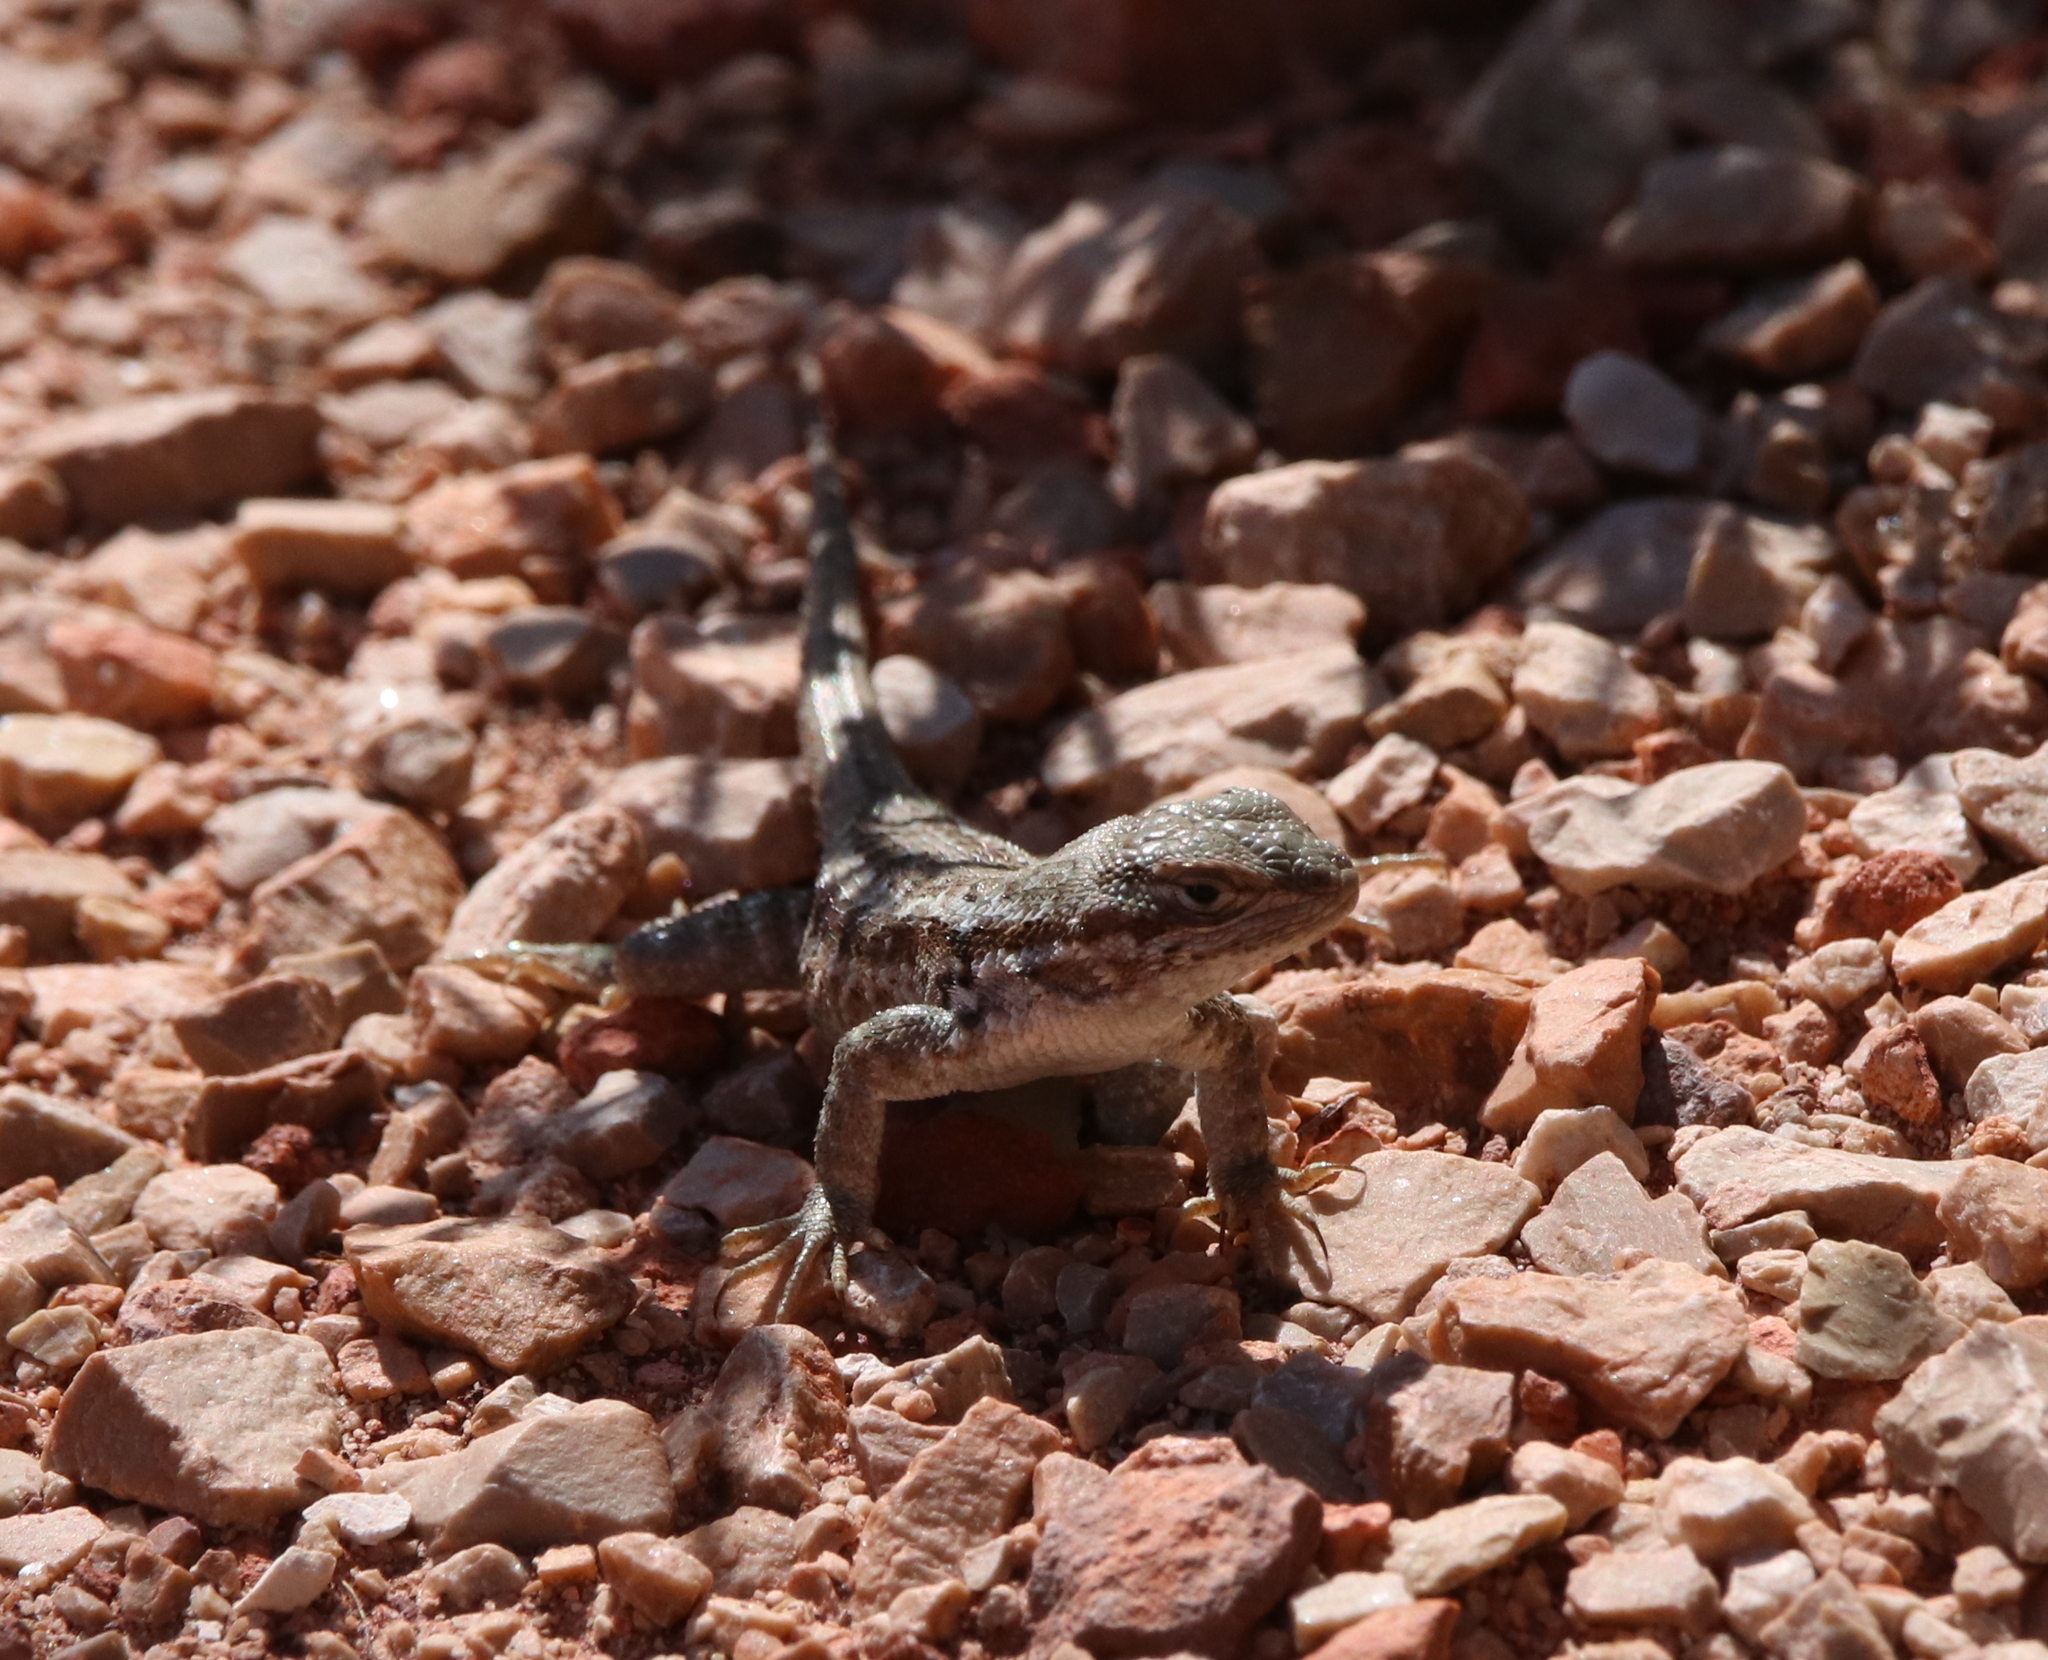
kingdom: Animalia
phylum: Chordata
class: Squamata
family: Phrynosomatidae
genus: Sceloporus
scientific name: Sceloporus graciosus
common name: Sagebrush lizard
